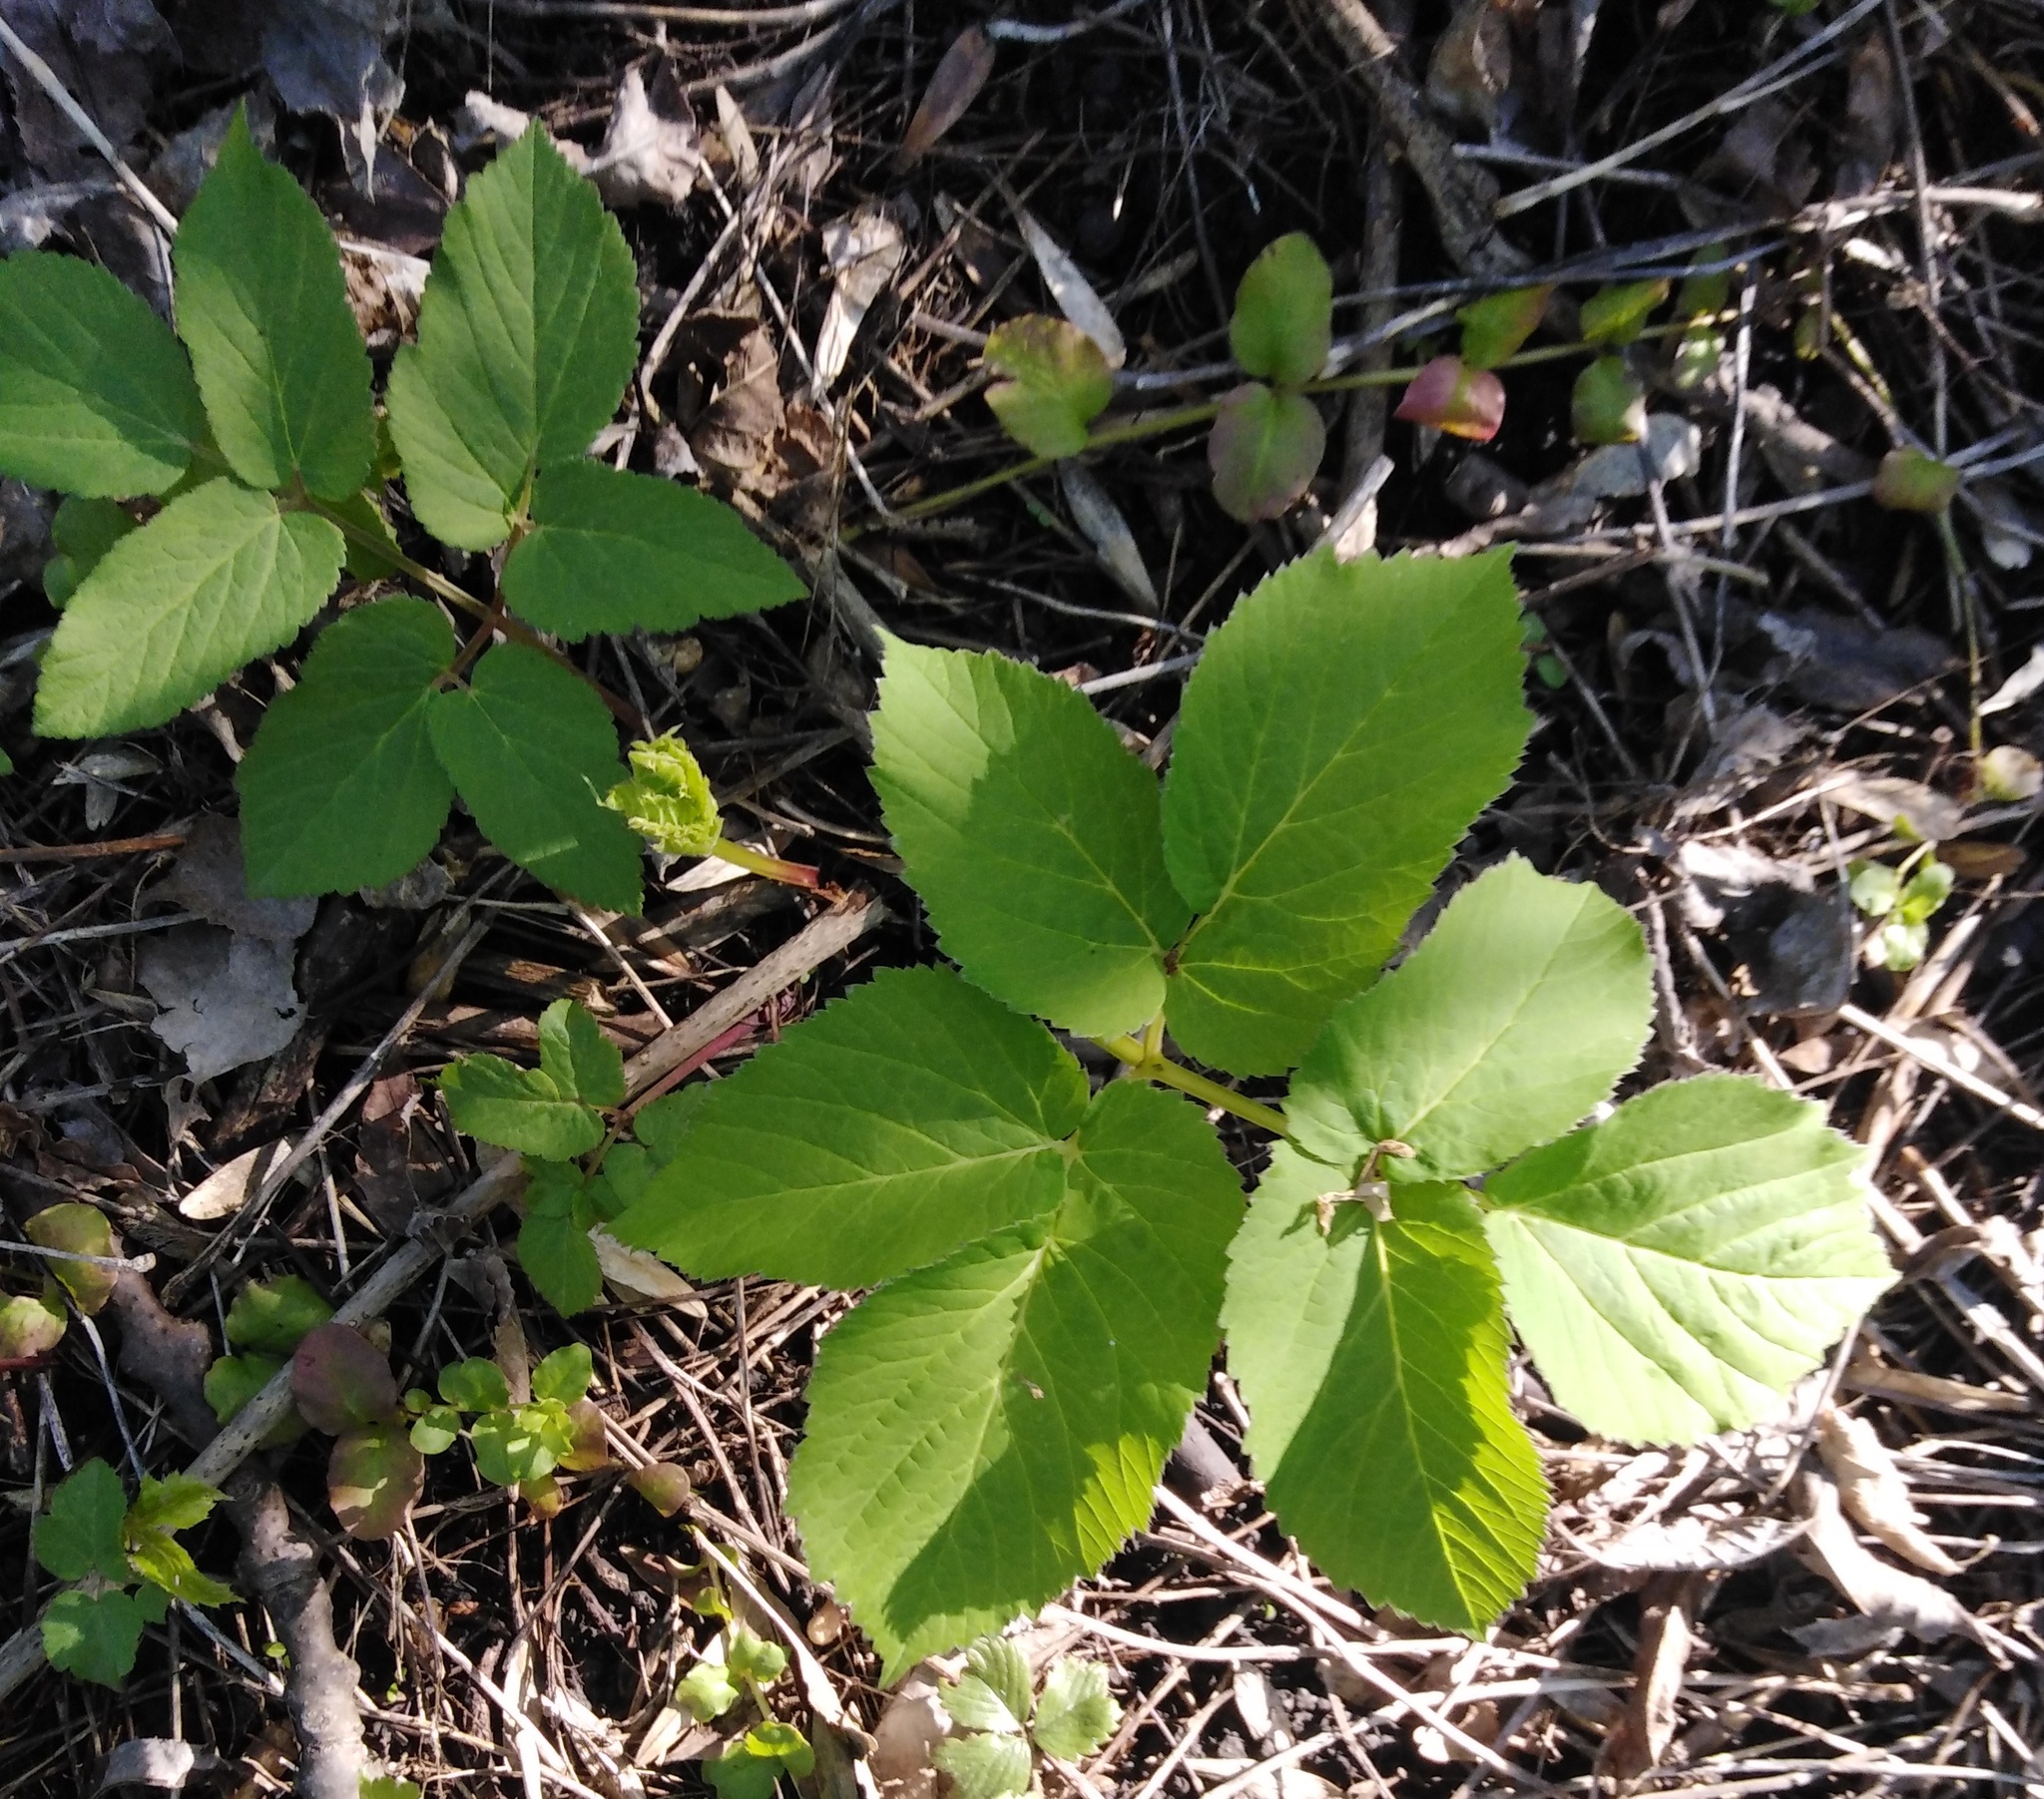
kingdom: Plantae
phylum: Tracheophyta
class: Magnoliopsida
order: Apiales
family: Apiaceae
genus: Aegopodium
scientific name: Aegopodium podagraria
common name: Ground-elder
